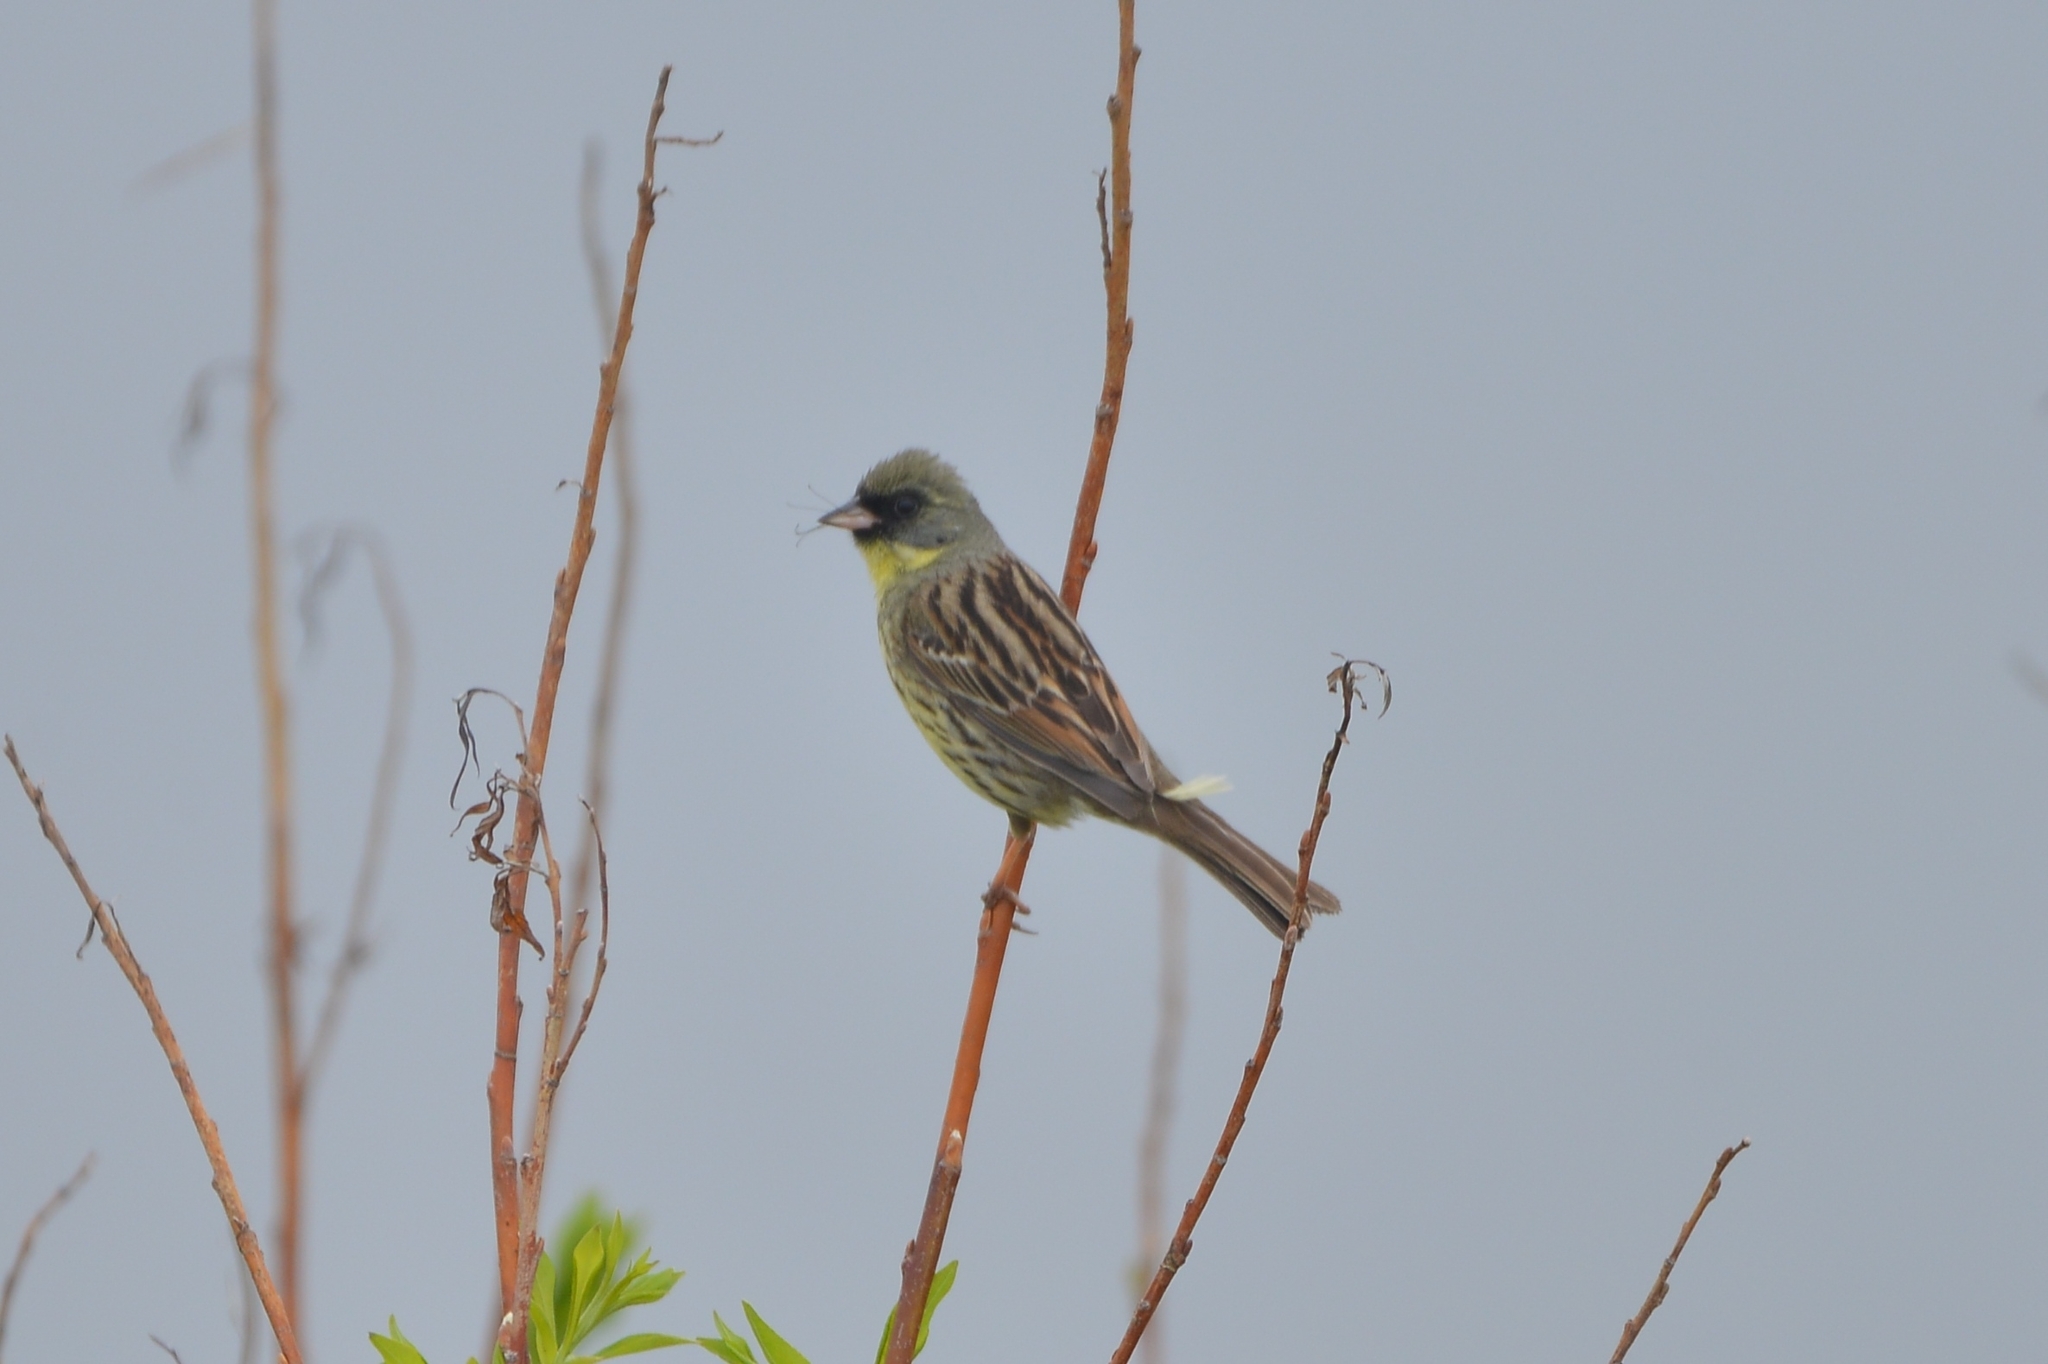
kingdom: Animalia
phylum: Chordata
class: Aves
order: Passeriformes
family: Emberizidae
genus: Emberiza
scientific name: Emberiza personata
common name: Masked bunting
